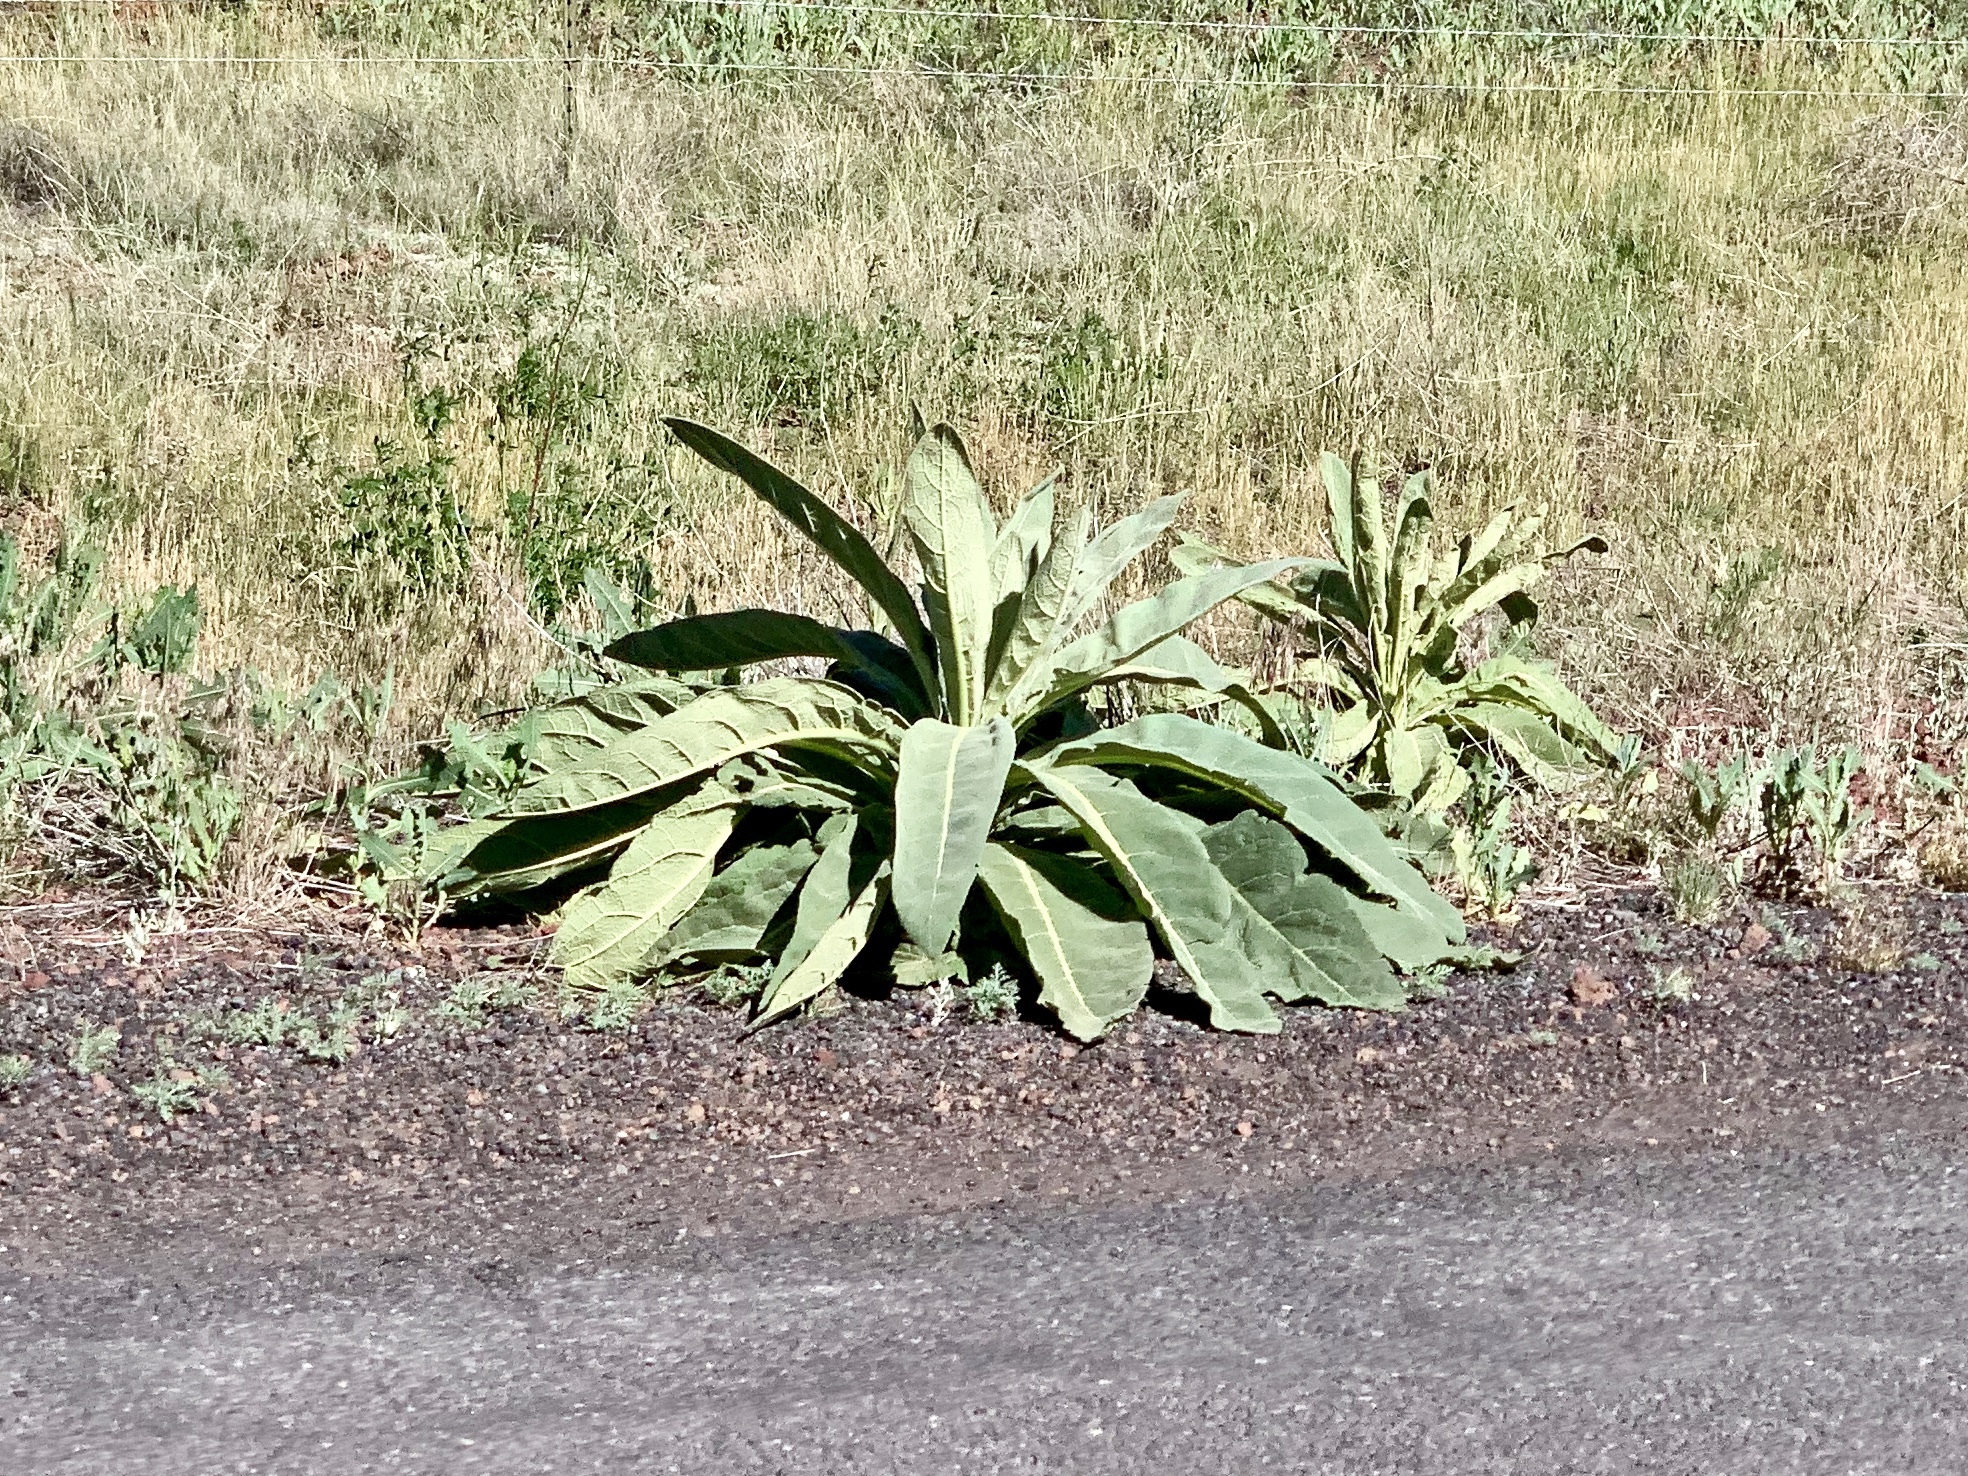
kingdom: Plantae
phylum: Tracheophyta
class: Magnoliopsida
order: Lamiales
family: Scrophulariaceae
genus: Verbascum
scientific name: Verbascum thapsus
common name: Common mullein
